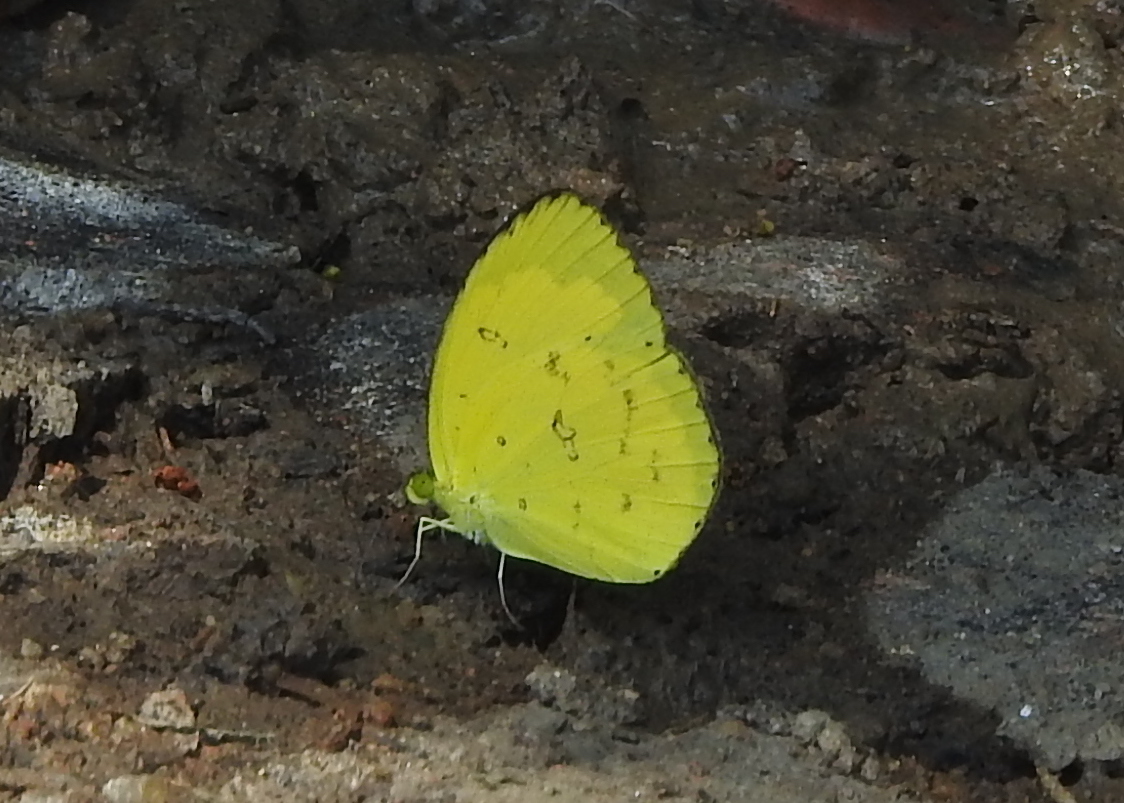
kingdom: Animalia
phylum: Arthropoda
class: Insecta
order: Lepidoptera
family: Pieridae
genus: Eurema
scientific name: Eurema hecabe
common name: Pale grass yellow
